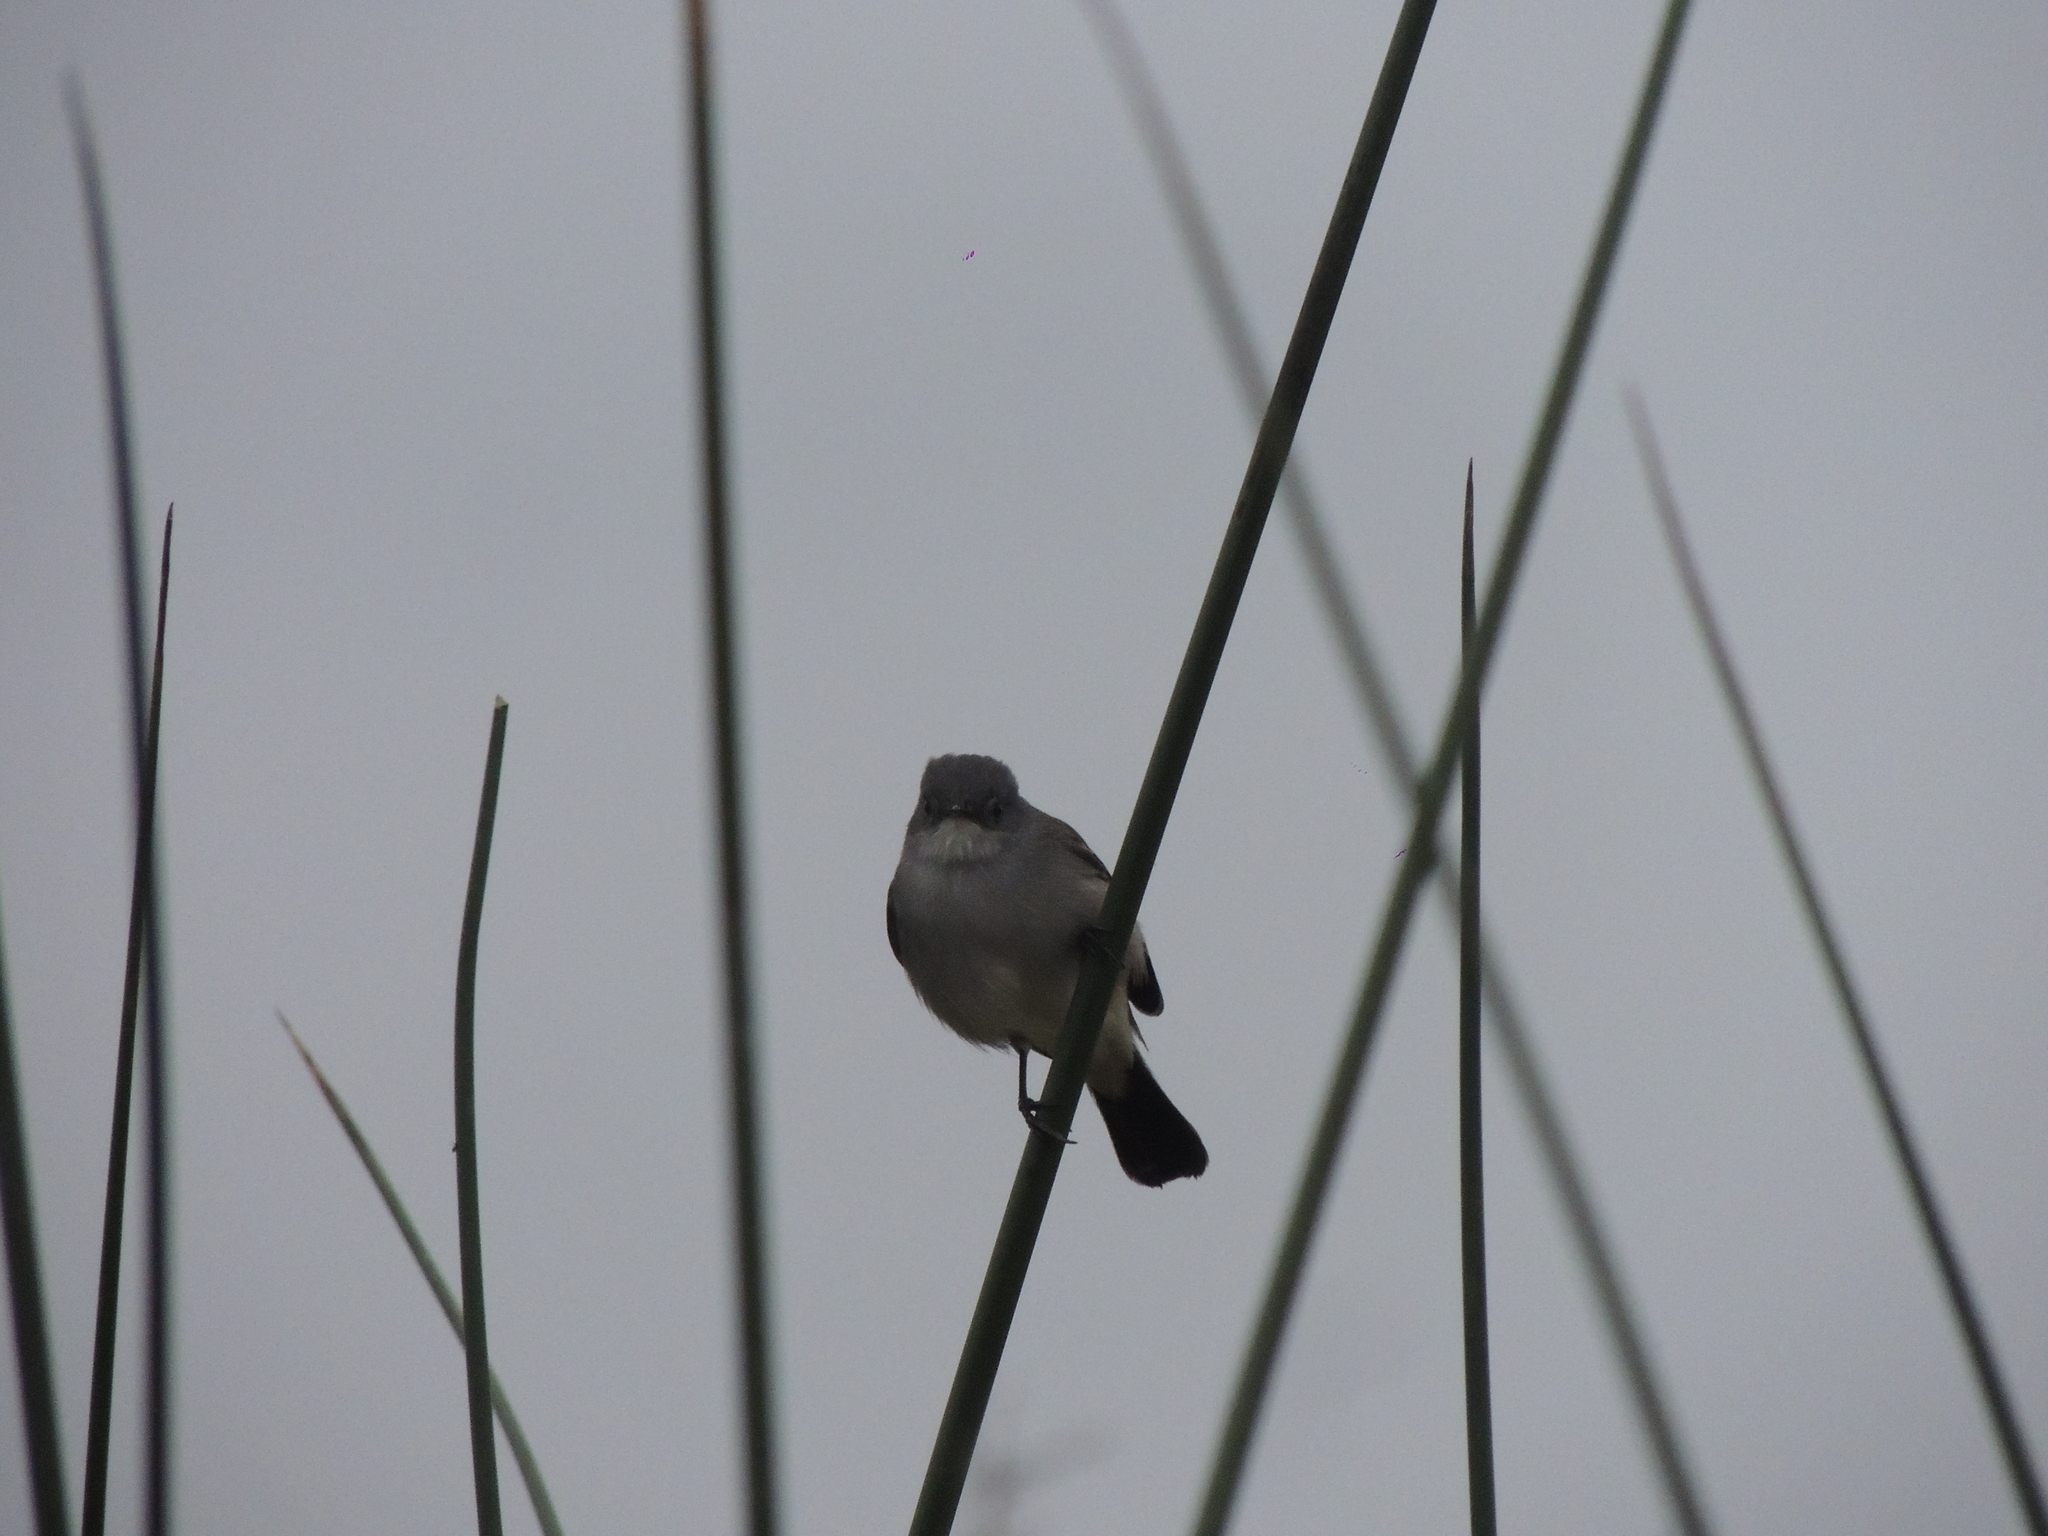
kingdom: Animalia
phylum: Chordata
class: Aves
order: Passeriformes
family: Tyrannidae
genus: Serpophaga
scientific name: Serpophaga nigricans
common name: Sooty tyrannulet
